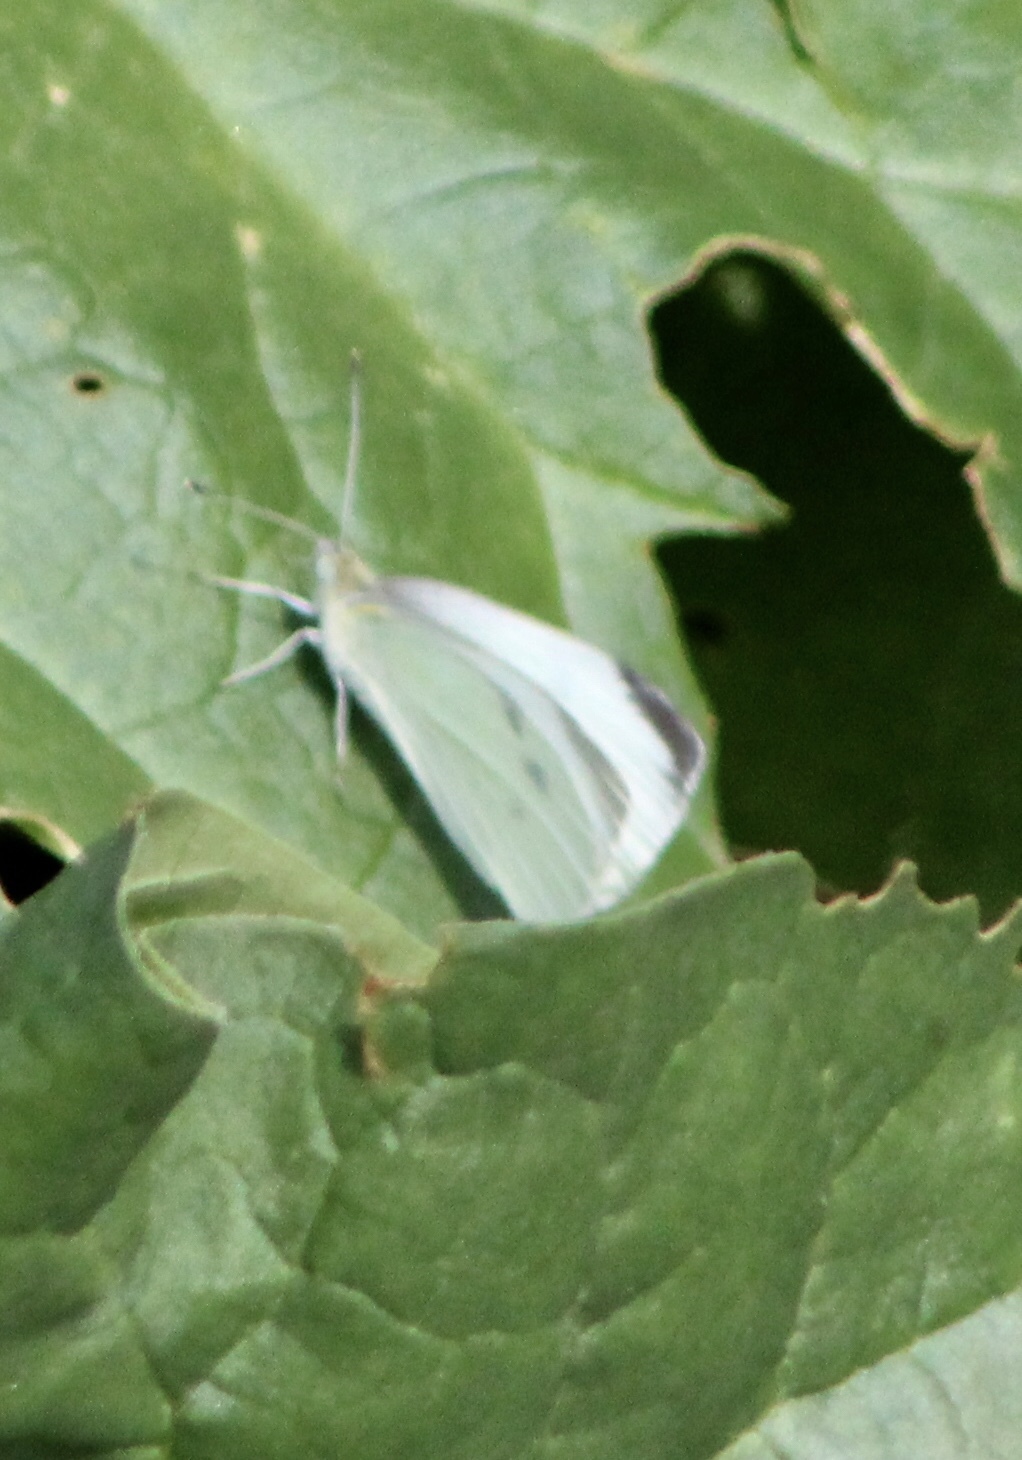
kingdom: Animalia
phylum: Arthropoda
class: Insecta
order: Lepidoptera
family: Pieridae
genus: Pieris
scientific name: Pieris rapae
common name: Small white
